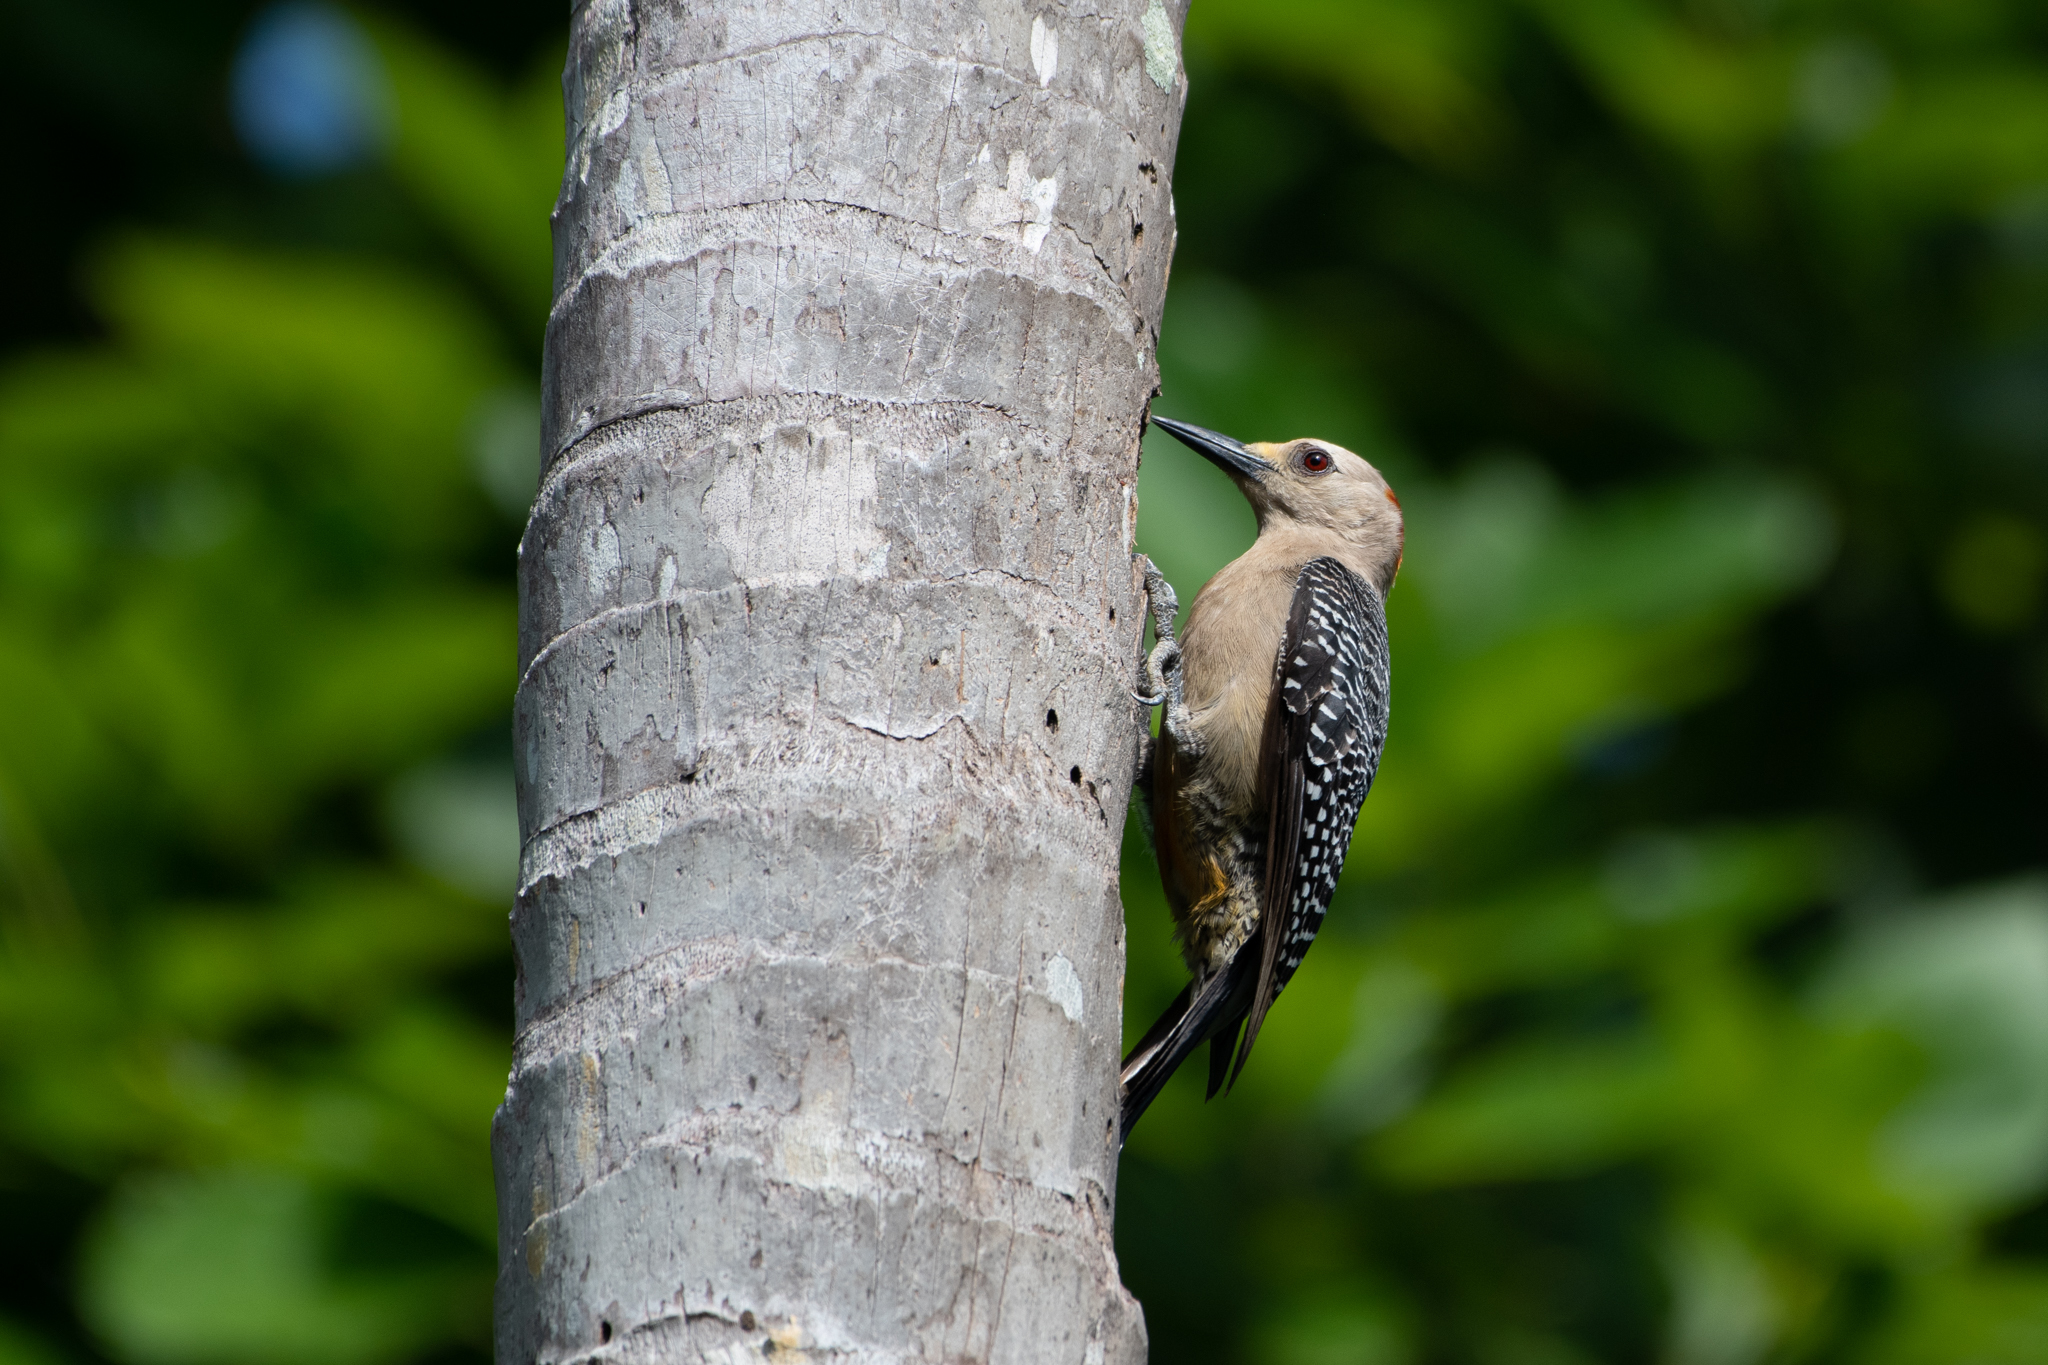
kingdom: Animalia
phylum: Chordata
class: Aves
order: Piciformes
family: Picidae
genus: Melanerpes
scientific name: Melanerpes santacruzi
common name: Velasquez's woodpecker
